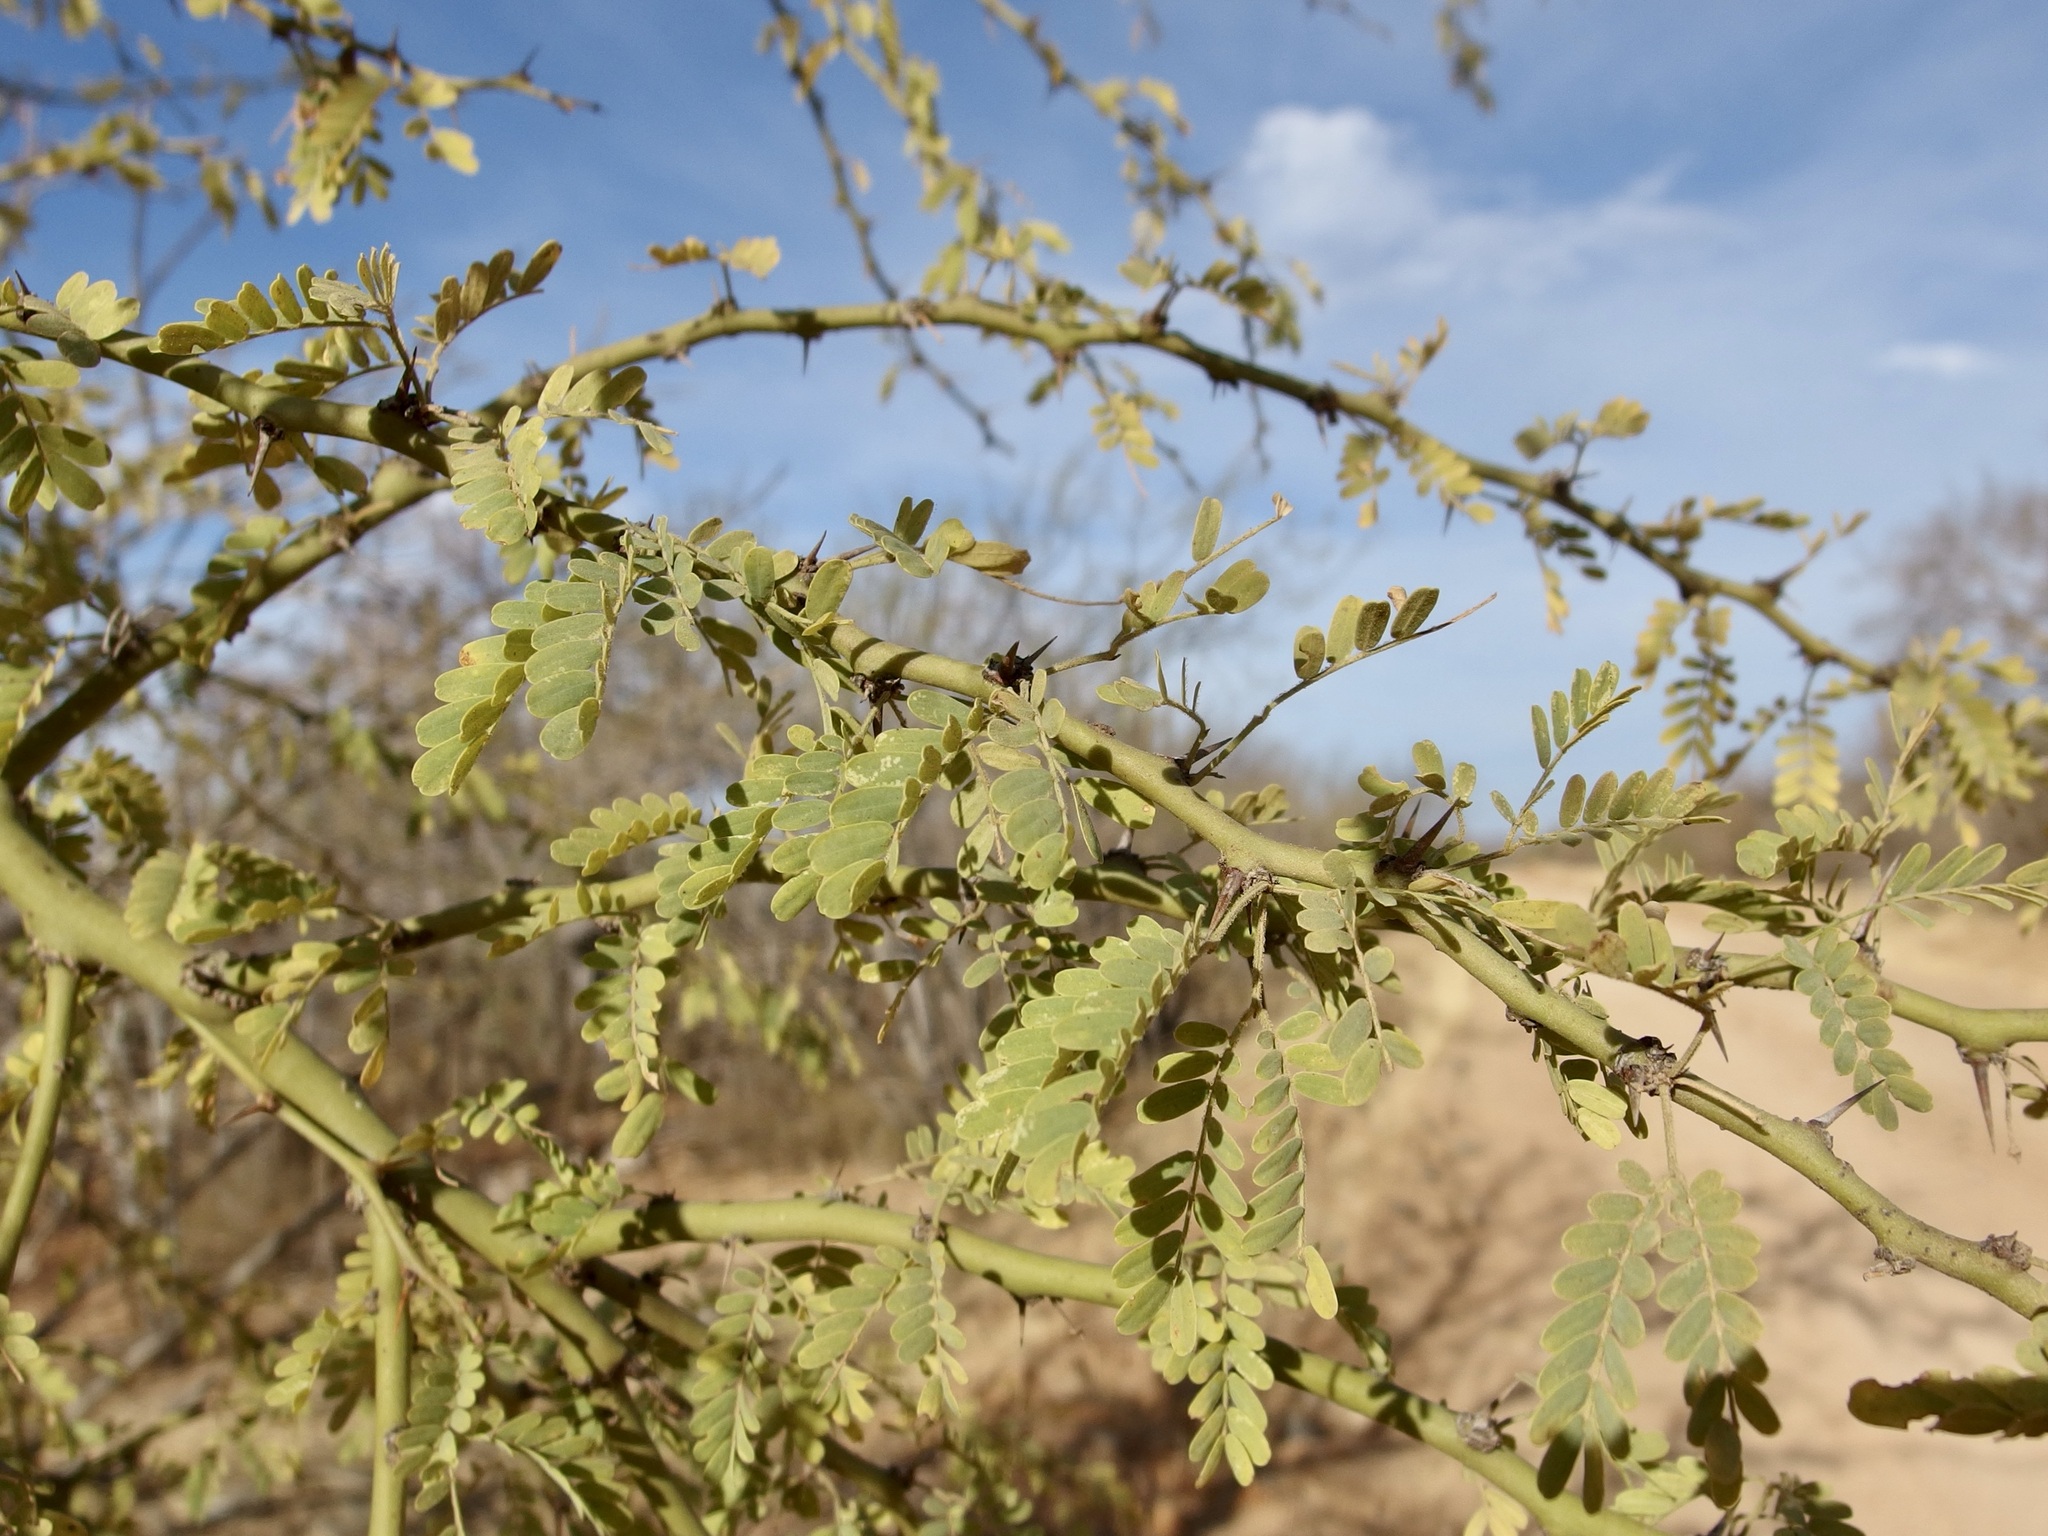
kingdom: Plantae
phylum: Tracheophyta
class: Magnoliopsida
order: Fabales
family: Fabaceae
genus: Parkinsonia
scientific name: Parkinsonia praecox
